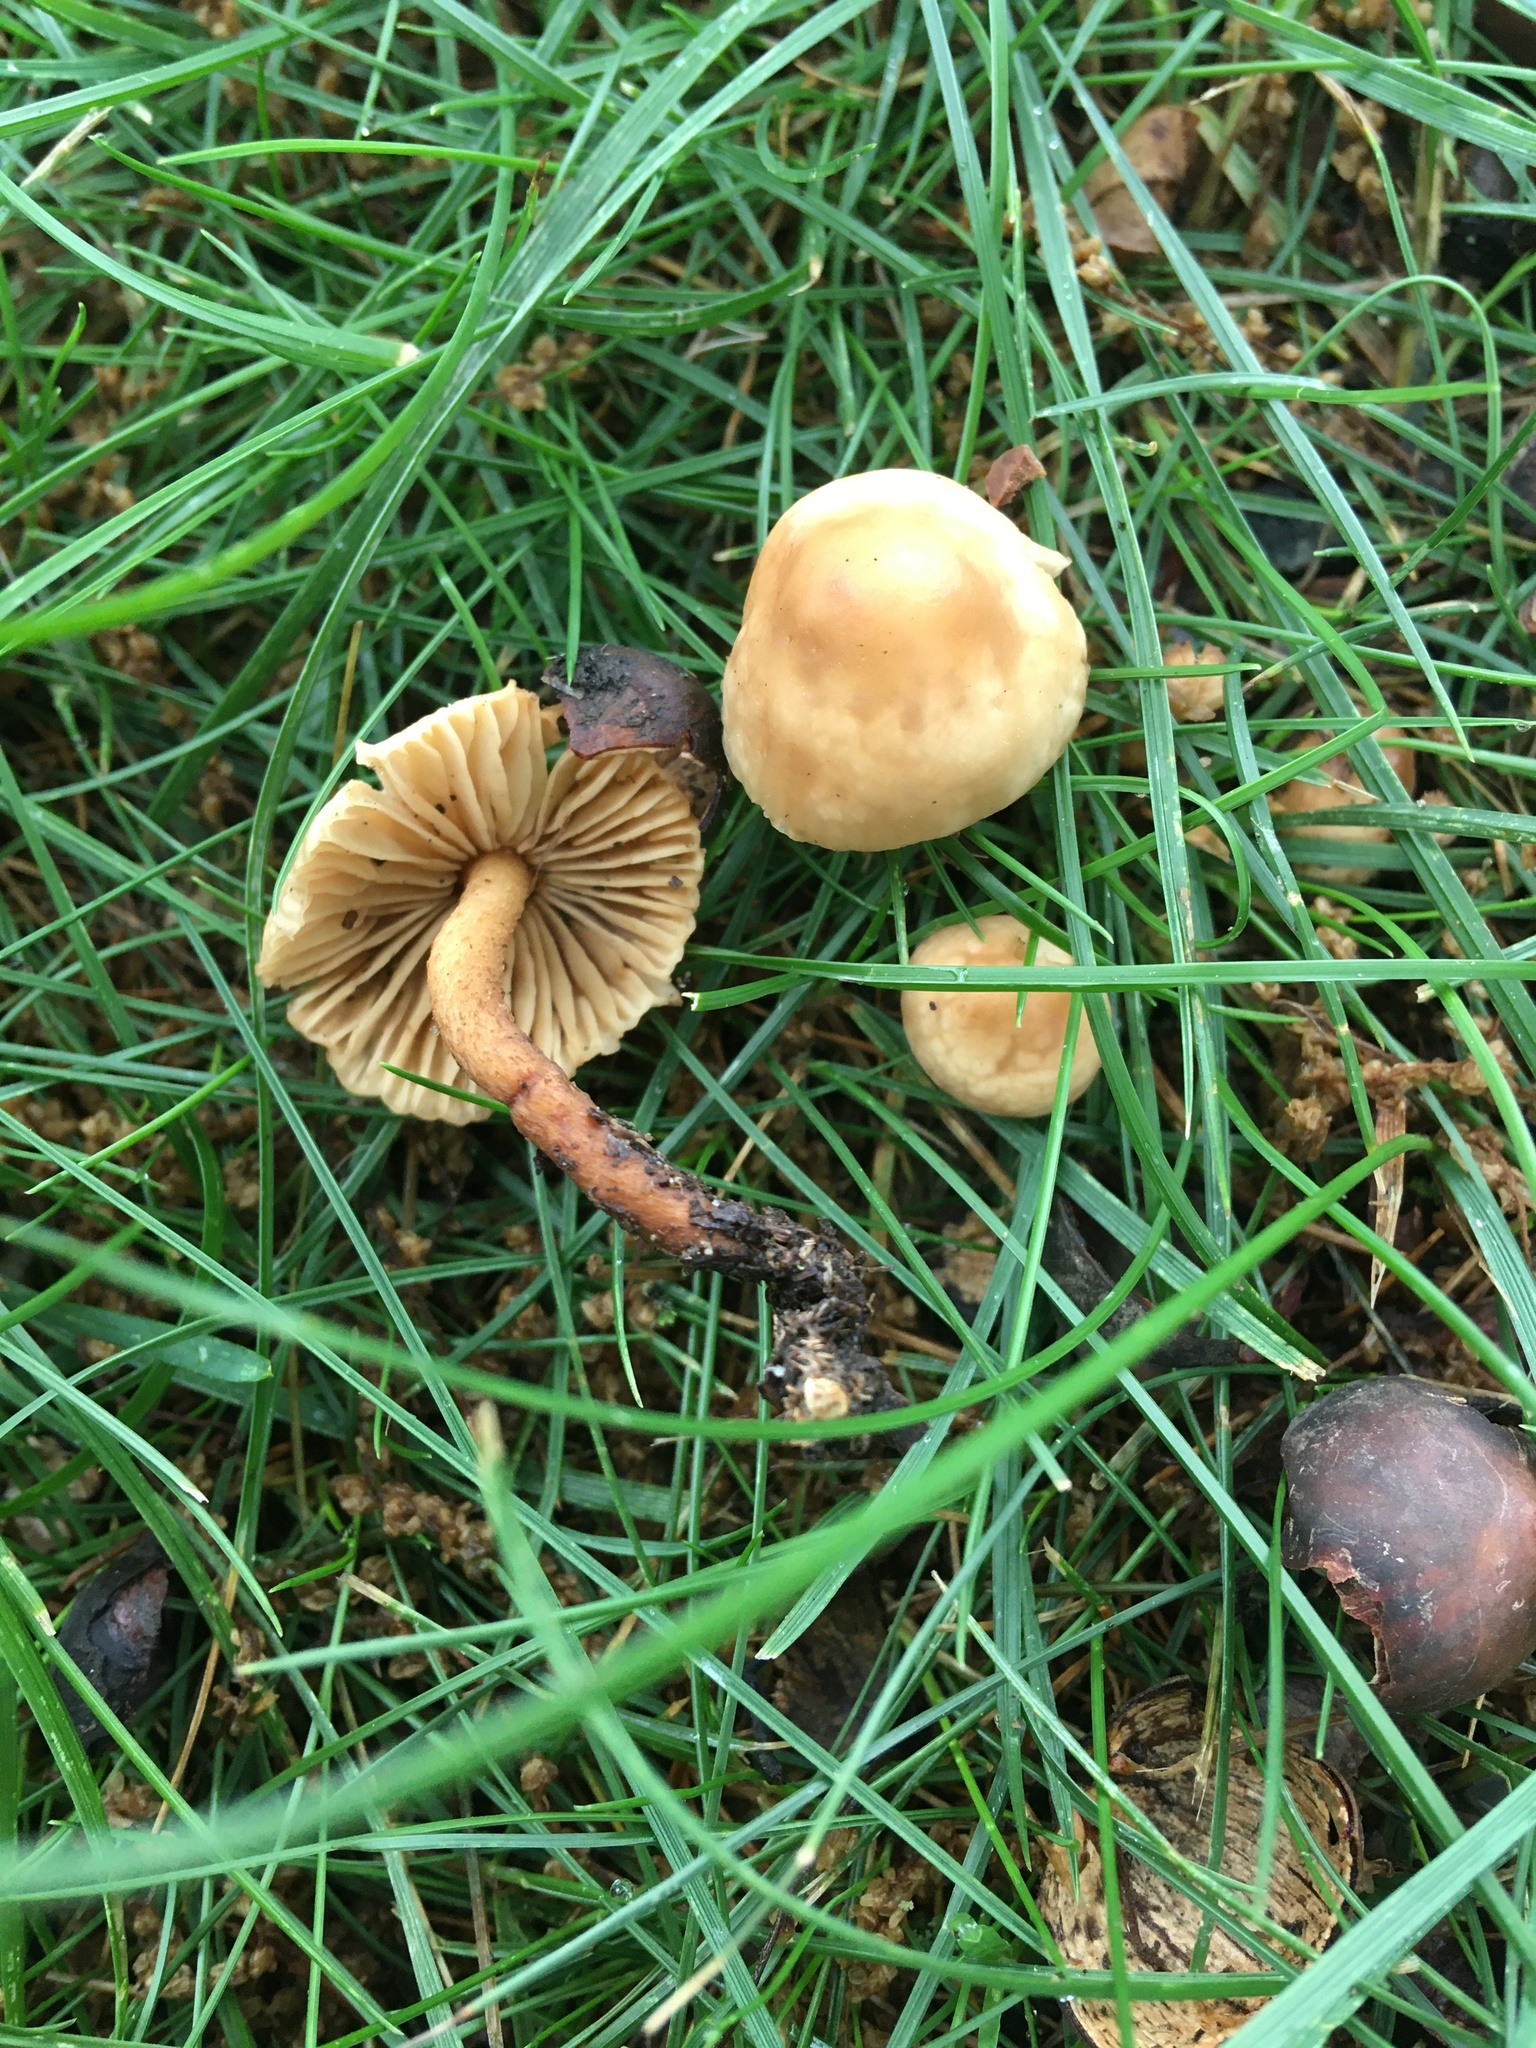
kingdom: Fungi
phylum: Basidiomycota
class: Agaricomycetes
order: Agaricales
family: Marasmiaceae
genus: Marasmius
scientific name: Marasmius oreades
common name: Fairy ring champignon
